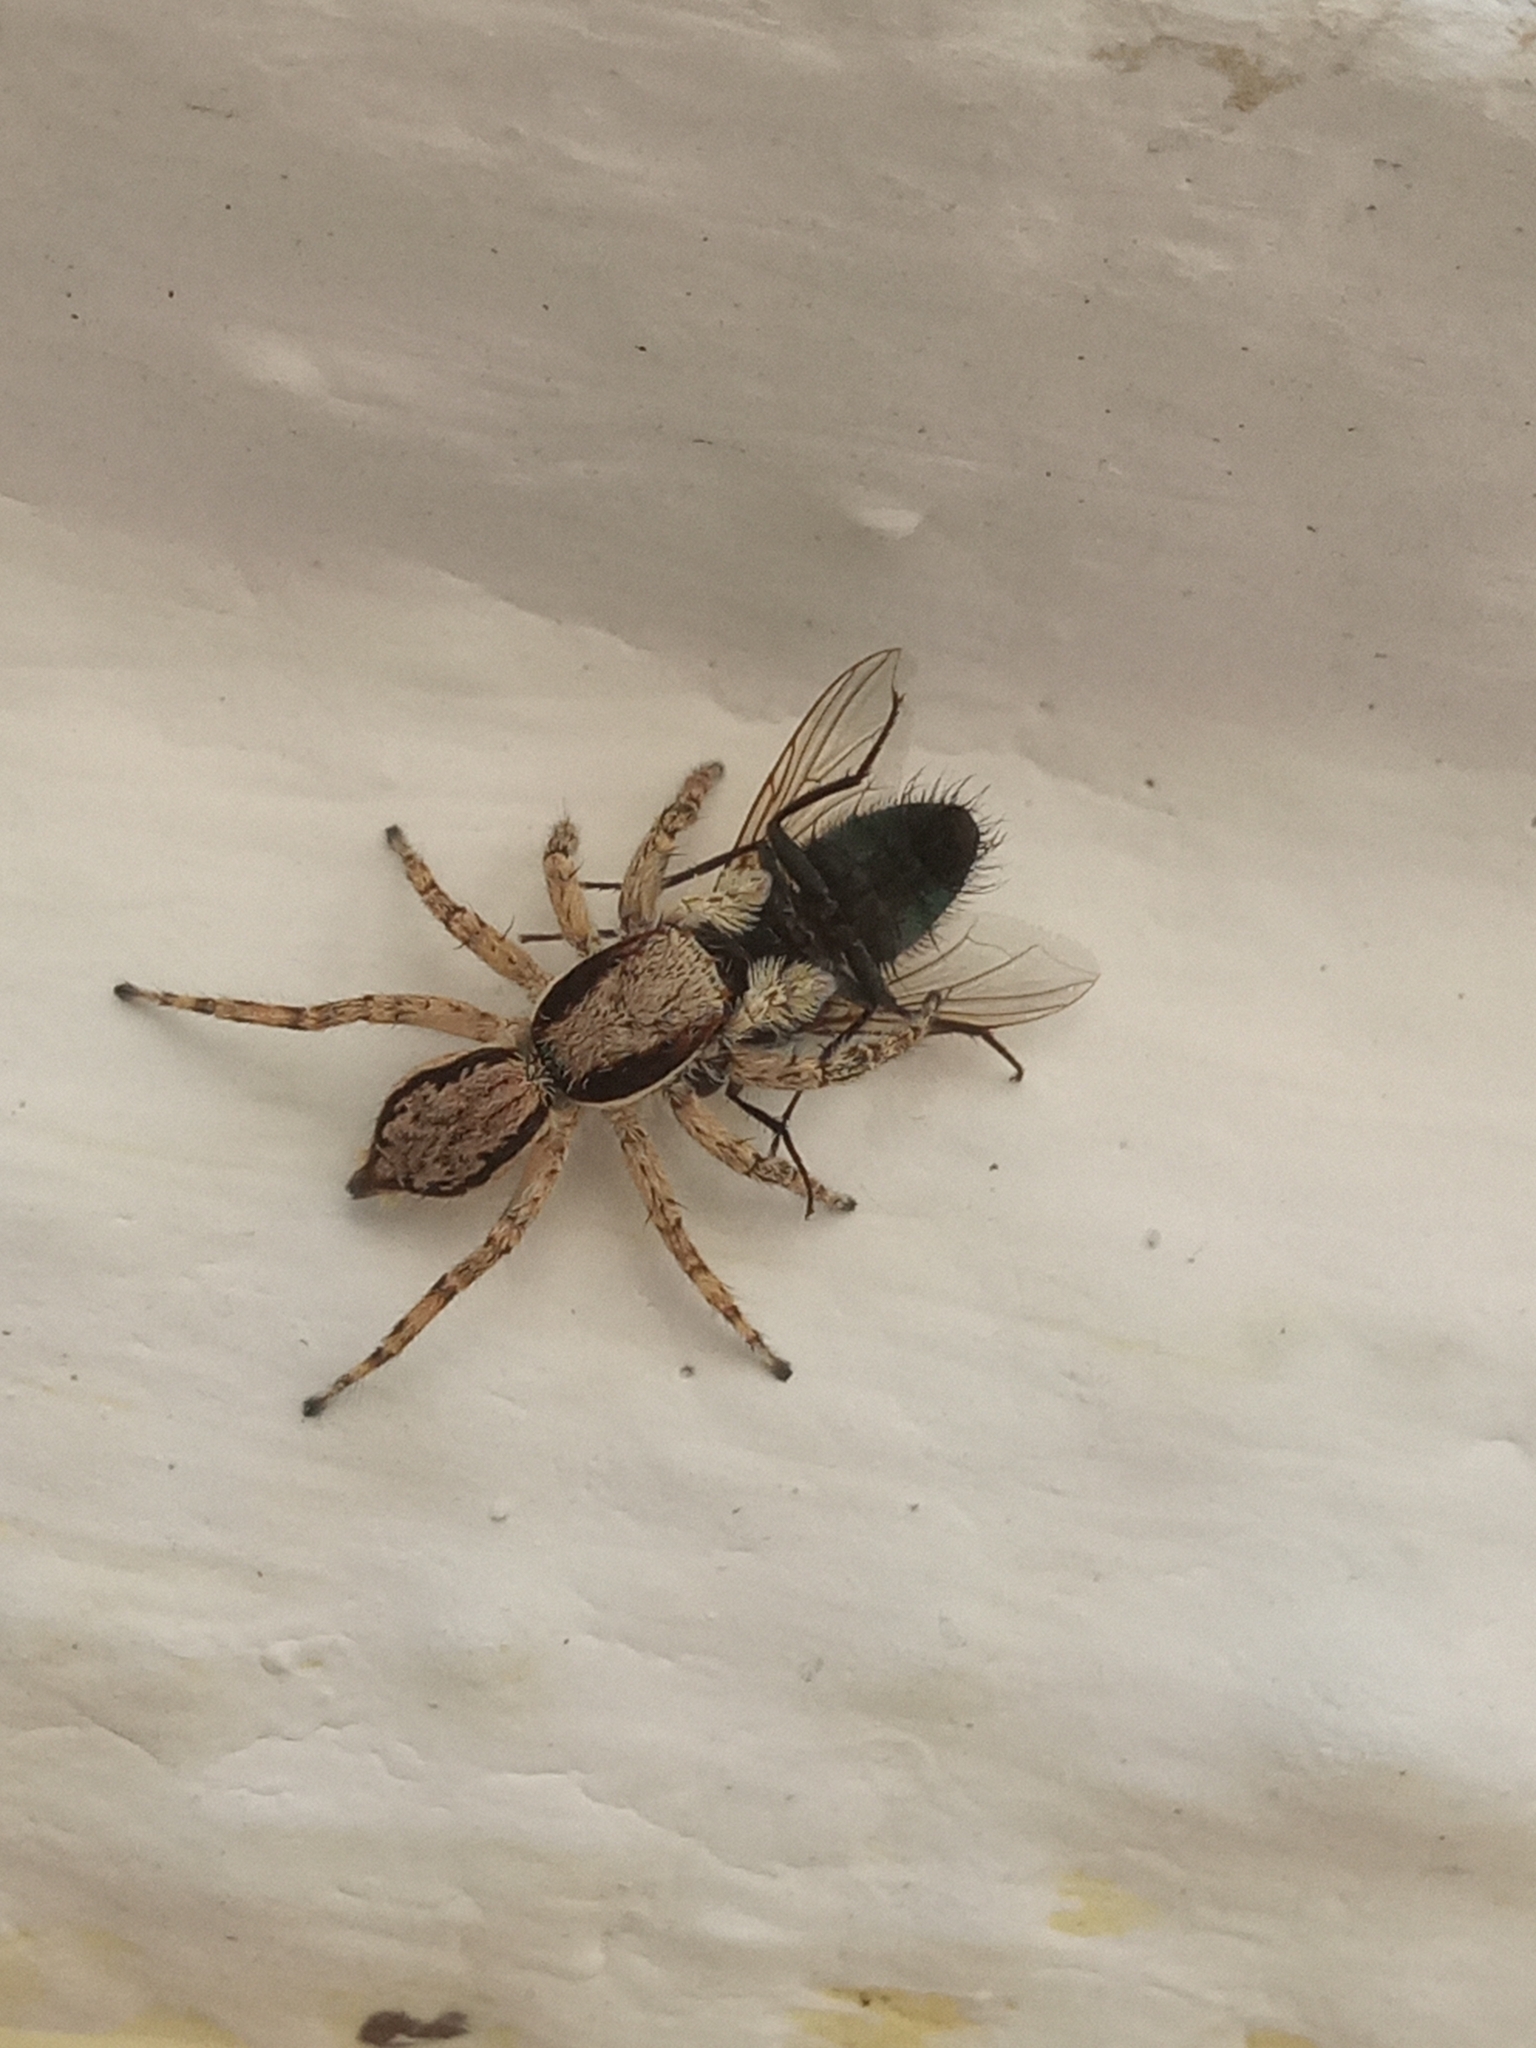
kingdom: Animalia
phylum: Arthropoda
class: Arachnida
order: Araneae
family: Salticidae
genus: Menemerus
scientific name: Menemerus bivittatus
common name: Gray wall jumper
